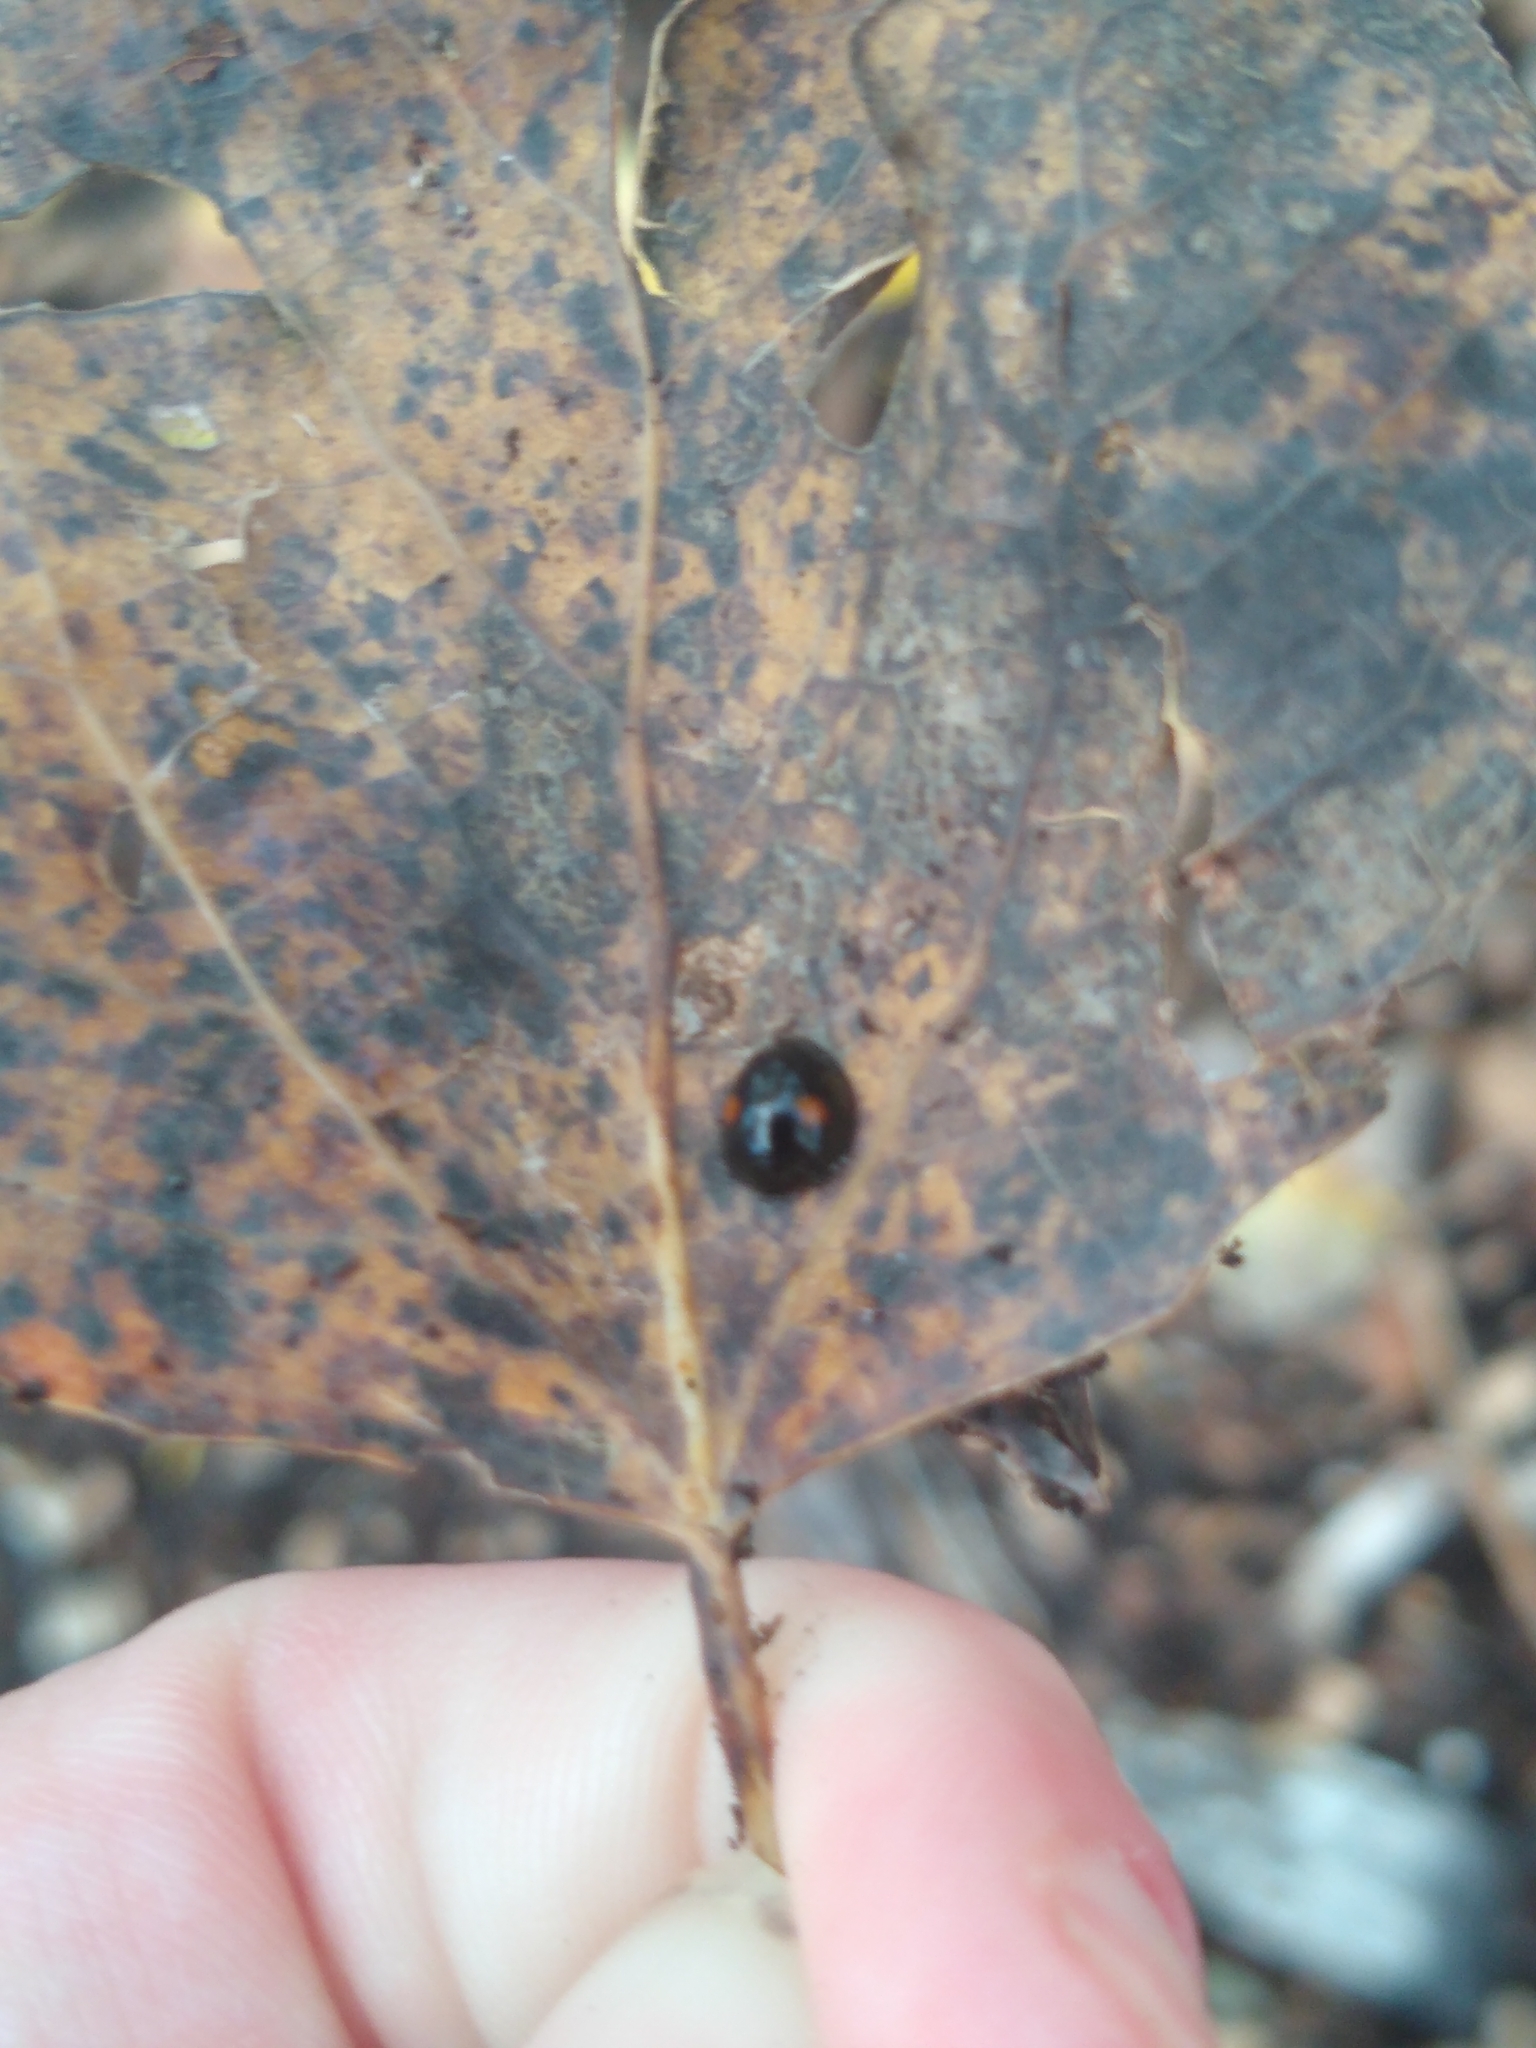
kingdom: Animalia
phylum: Arthropoda
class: Insecta
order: Coleoptera
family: Coccinellidae
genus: Chilocorus
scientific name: Chilocorus stigma
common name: Twicestabbed lady beetle
